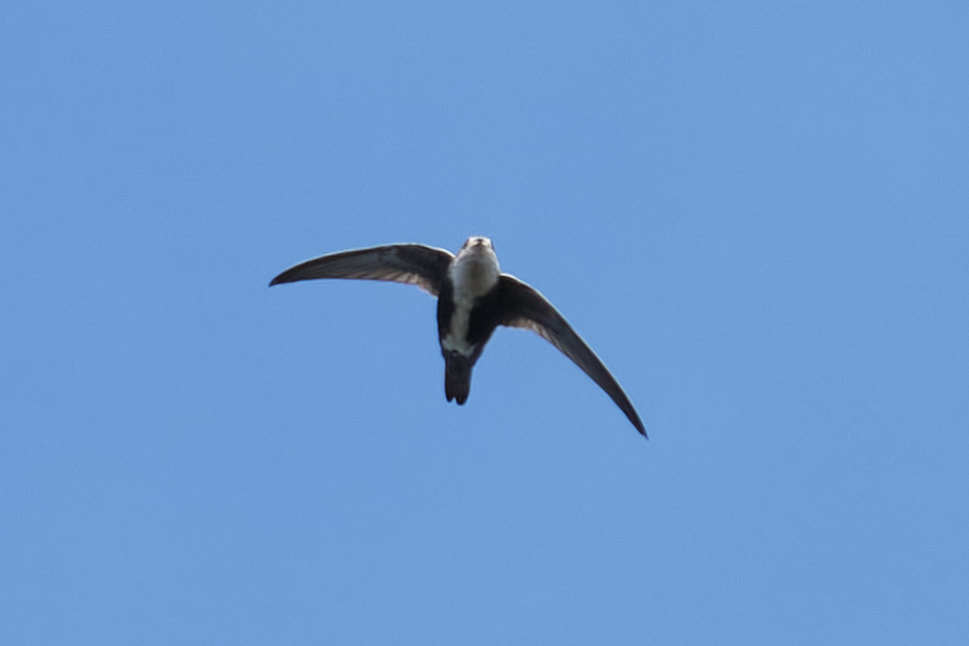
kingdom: Animalia
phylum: Chordata
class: Aves
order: Apodiformes
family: Apodidae
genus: Aeronautes
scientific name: Aeronautes saxatalis
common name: White-throated swift
